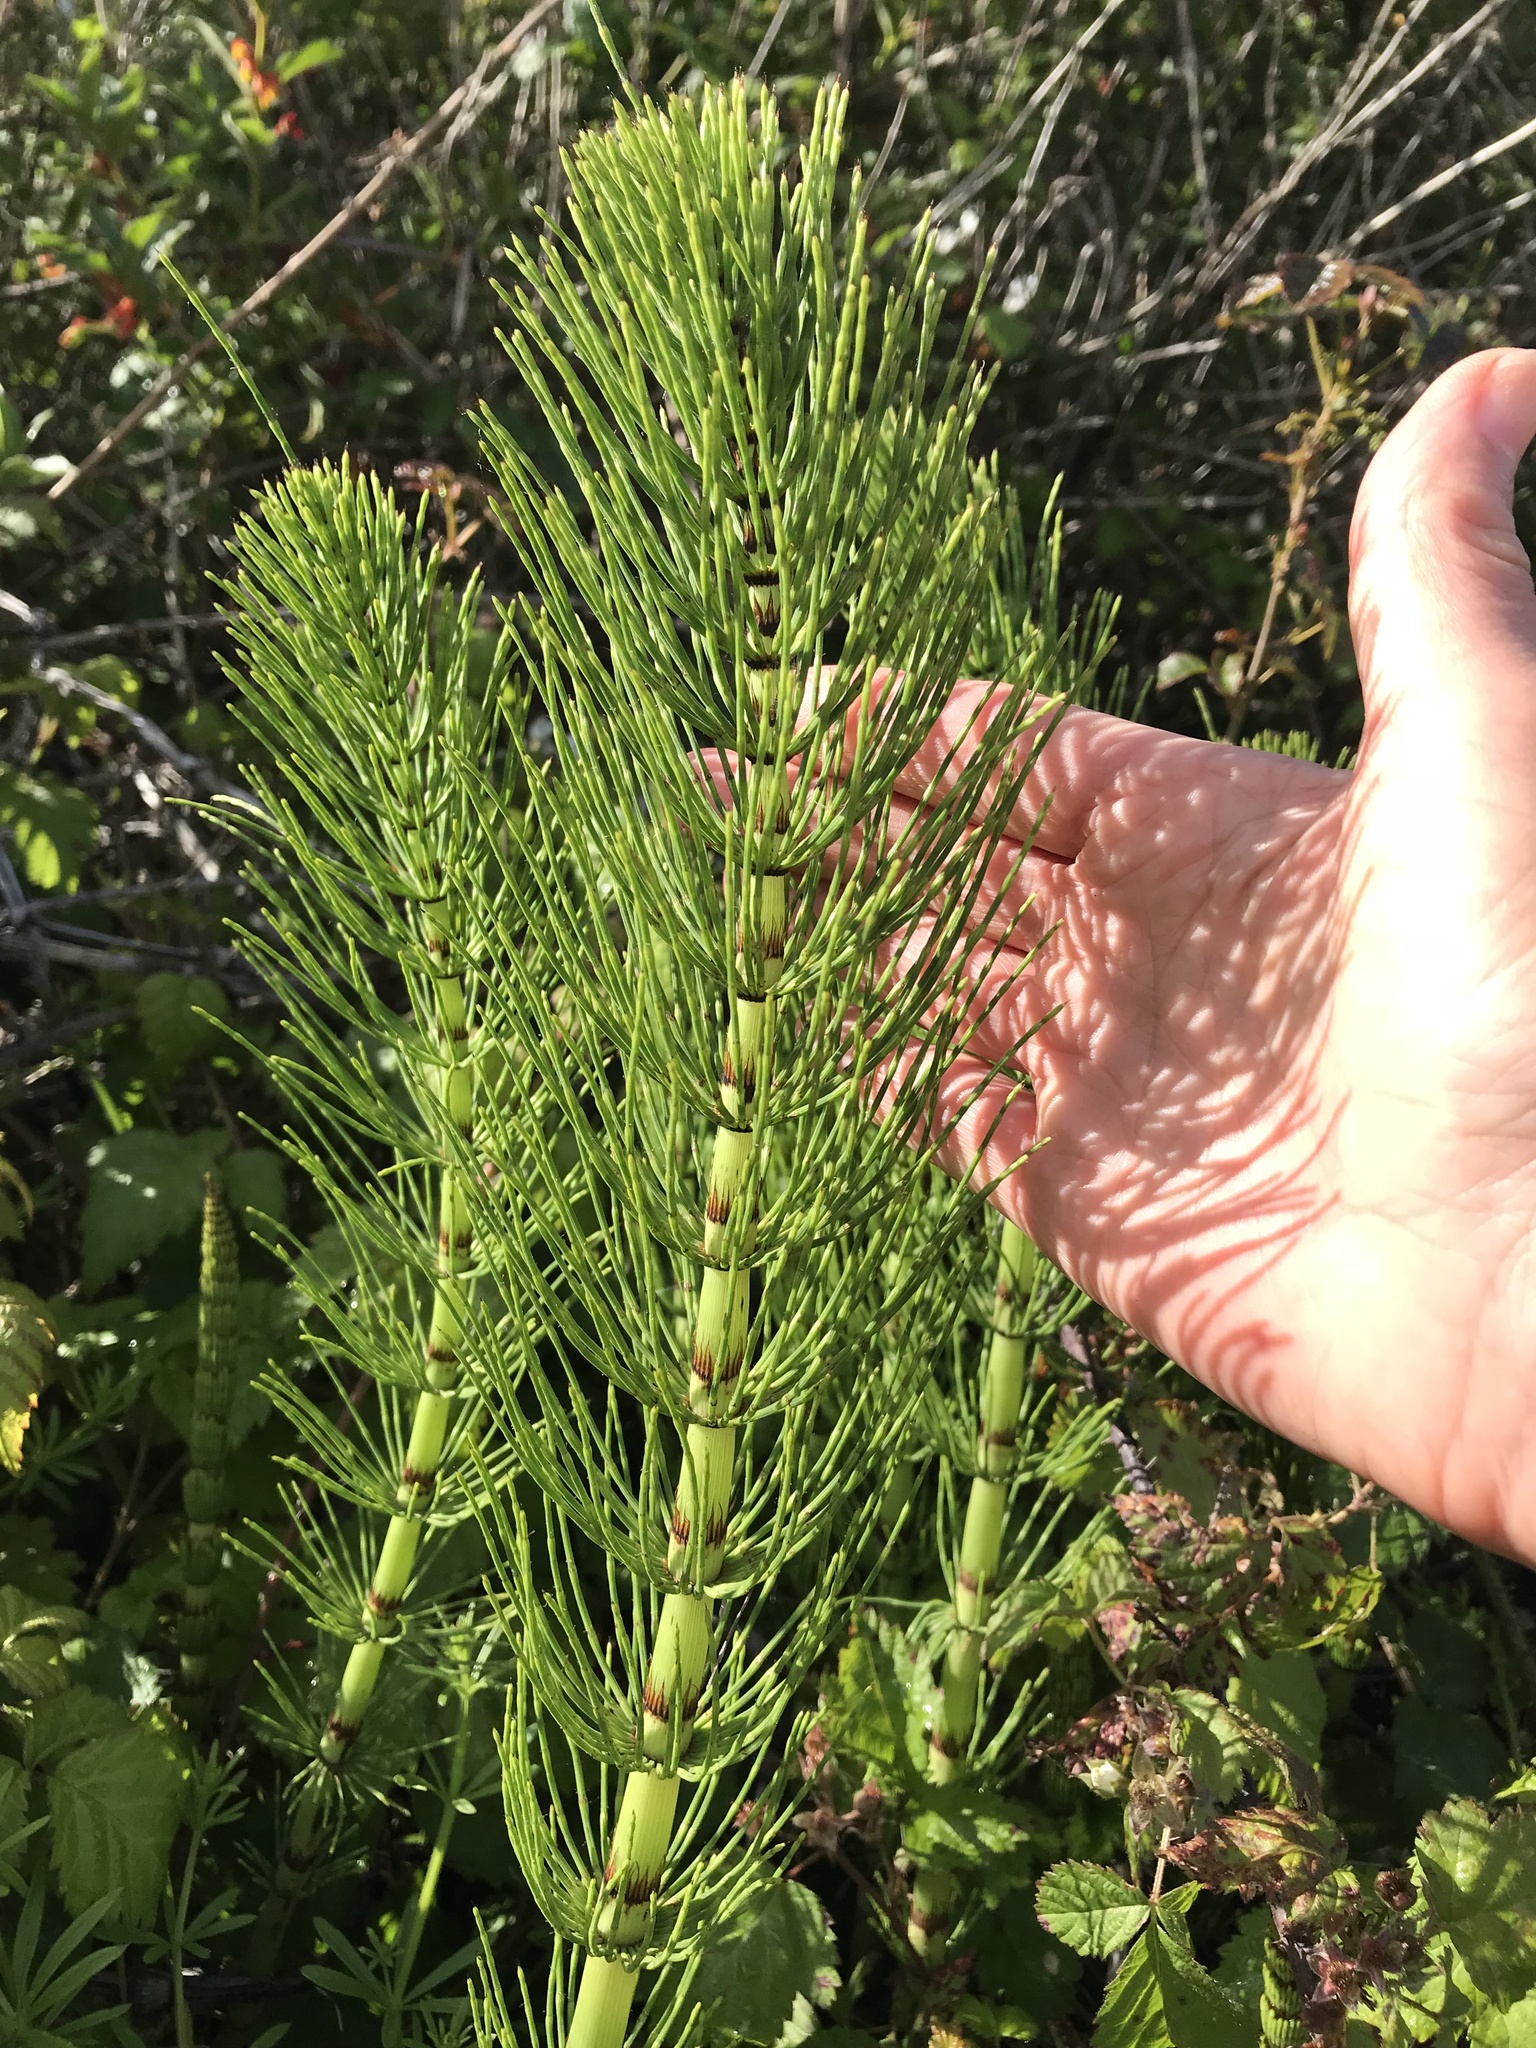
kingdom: Plantae
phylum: Tracheophyta
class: Polypodiopsida
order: Equisetales
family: Equisetaceae
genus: Equisetum
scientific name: Equisetum telmateia
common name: Great horsetail
